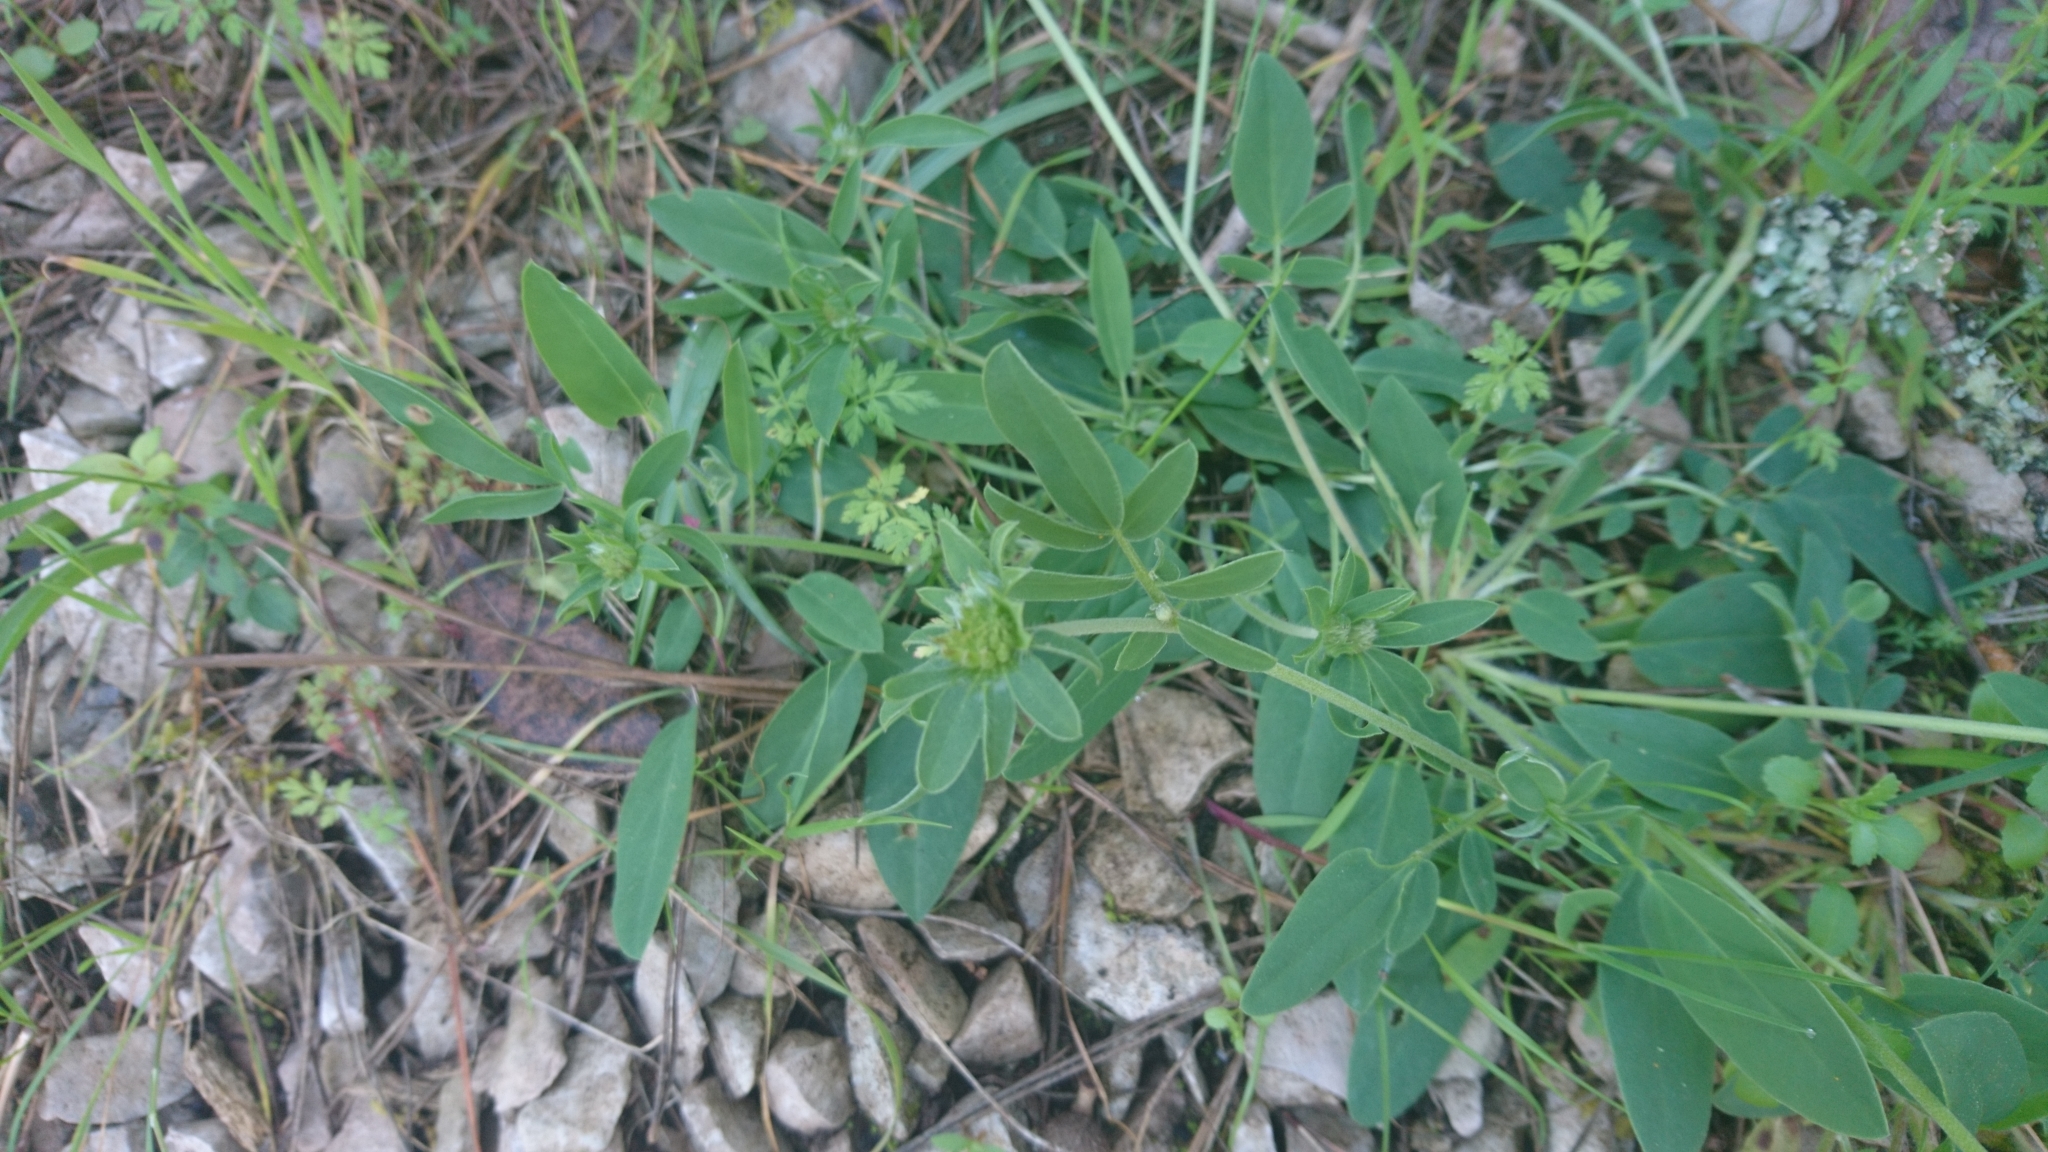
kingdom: Plantae
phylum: Tracheophyta
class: Magnoliopsida
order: Fabales
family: Fabaceae
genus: Anthyllis
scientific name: Anthyllis vulneraria
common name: Kidney vetch
